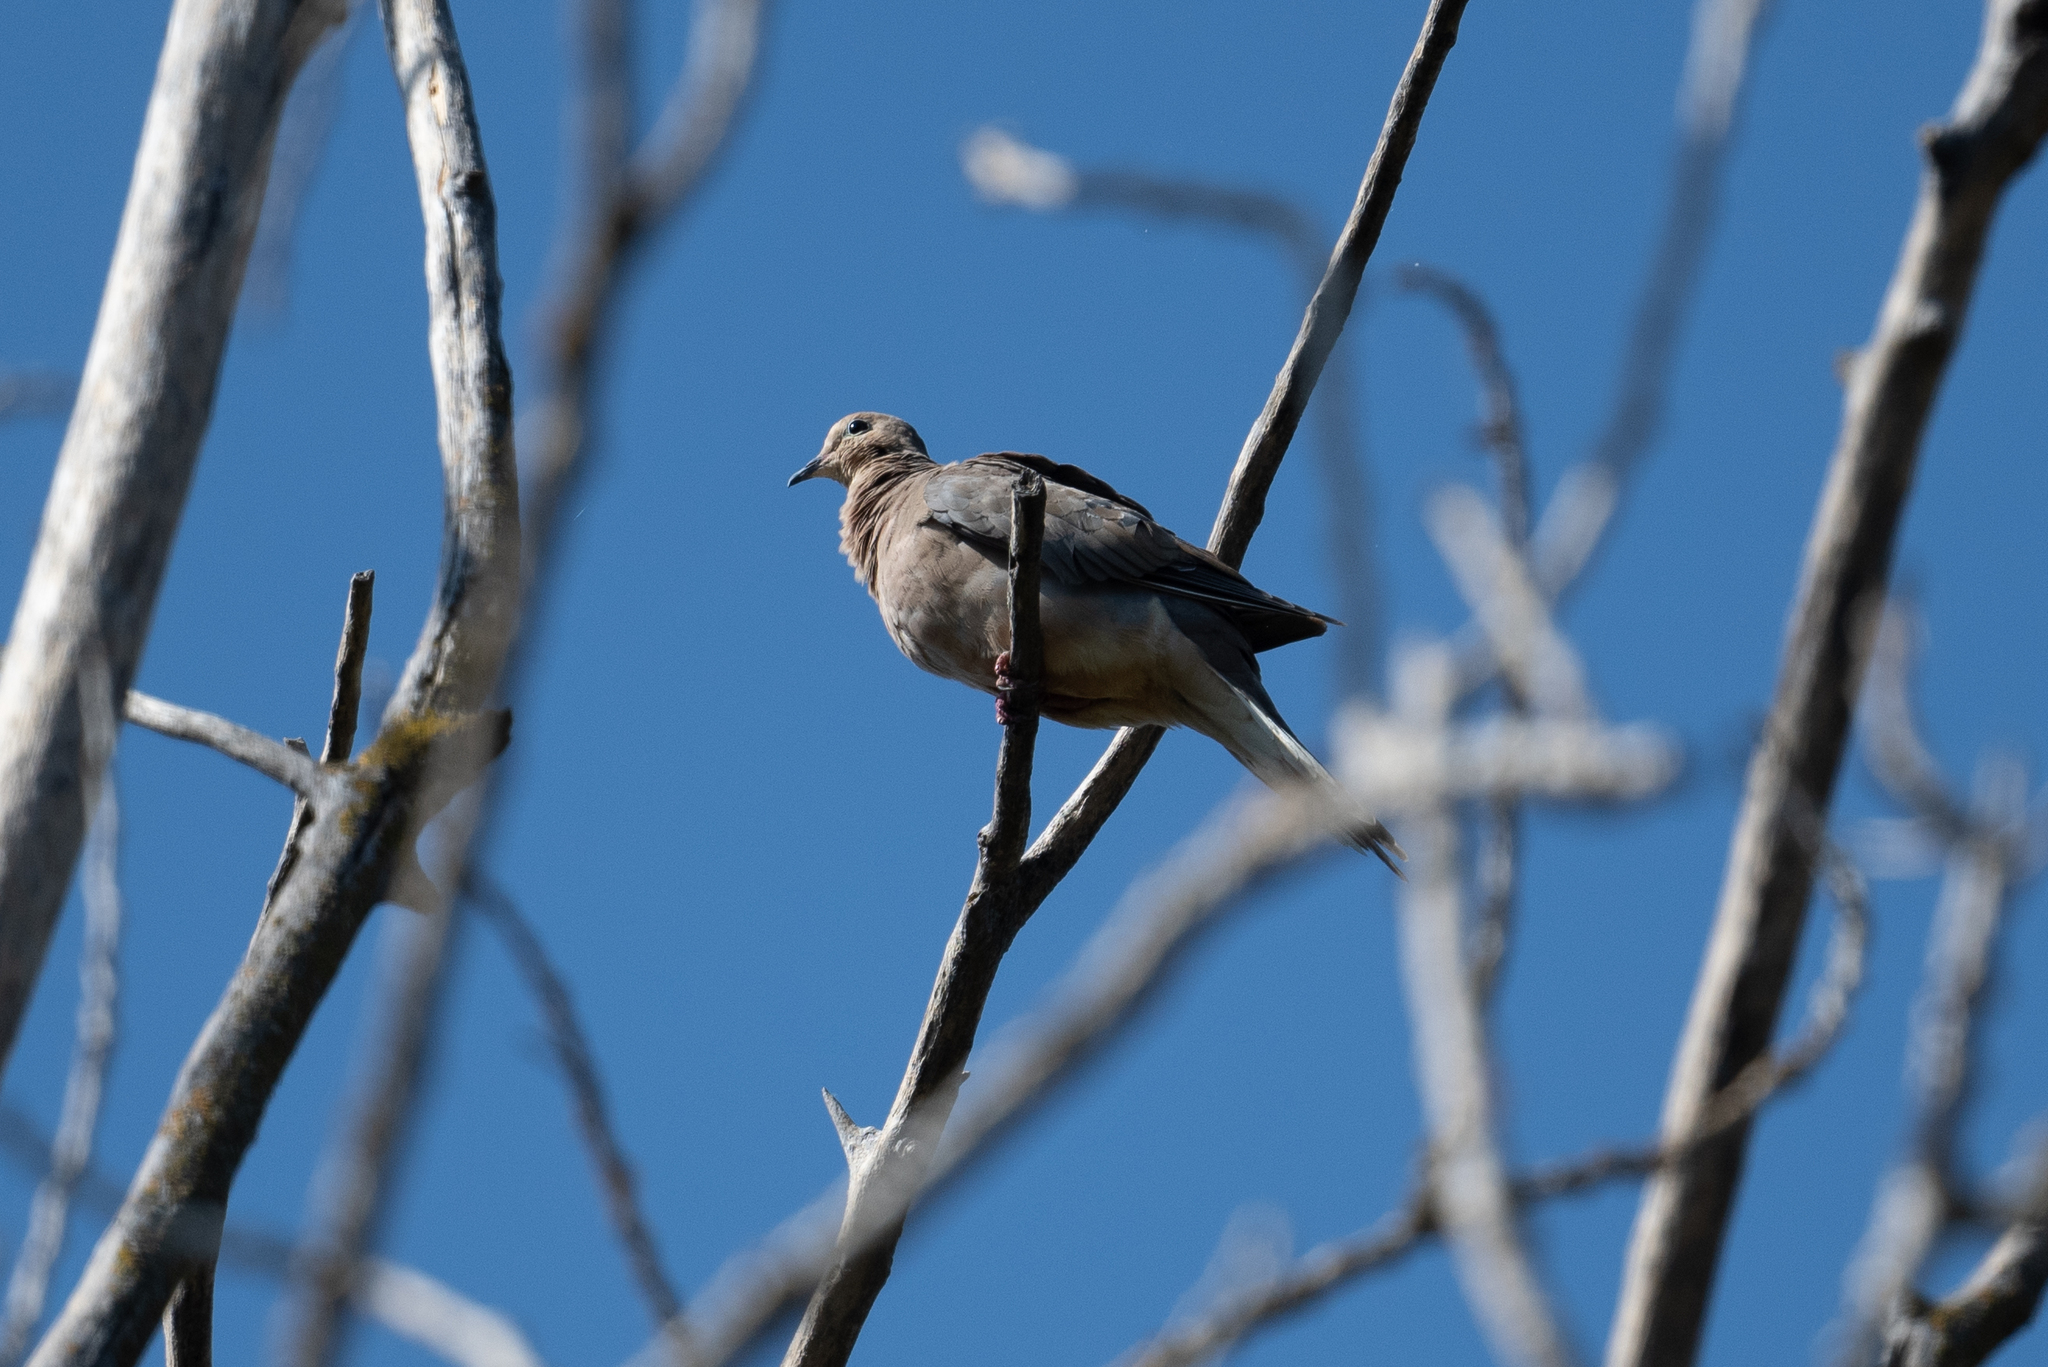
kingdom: Animalia
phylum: Chordata
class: Aves
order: Columbiformes
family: Columbidae
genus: Zenaida
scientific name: Zenaida macroura
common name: Mourning dove
